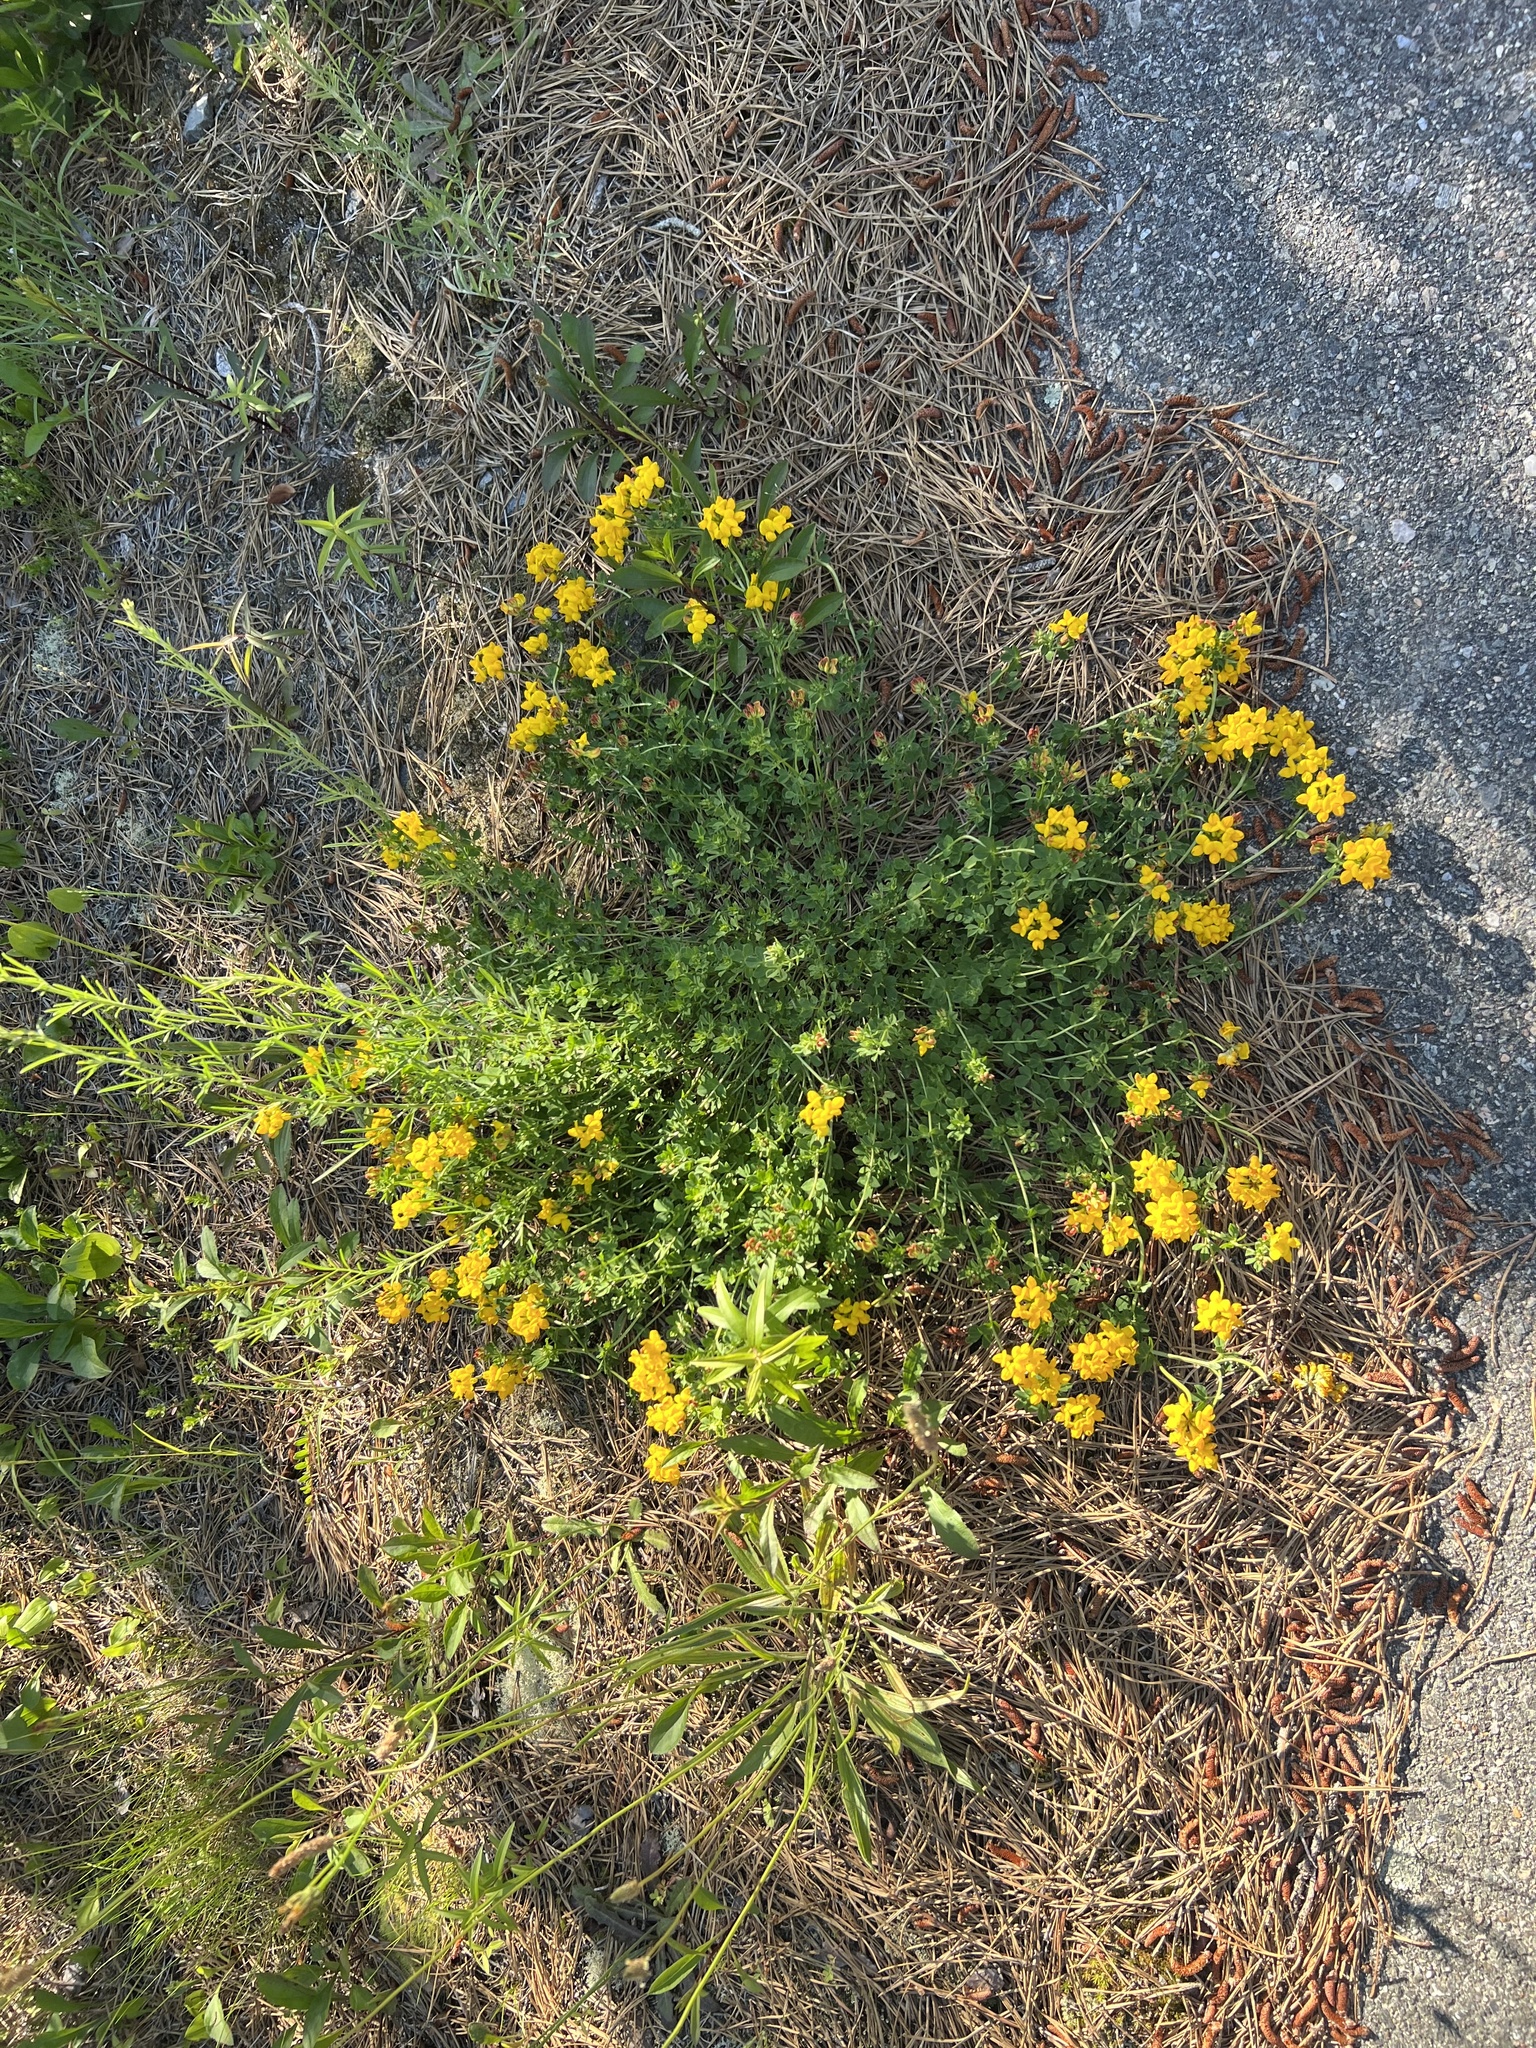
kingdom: Plantae
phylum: Tracheophyta
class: Magnoliopsida
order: Fabales
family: Fabaceae
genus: Lotus
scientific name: Lotus corniculatus
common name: Common bird's-foot-trefoil
